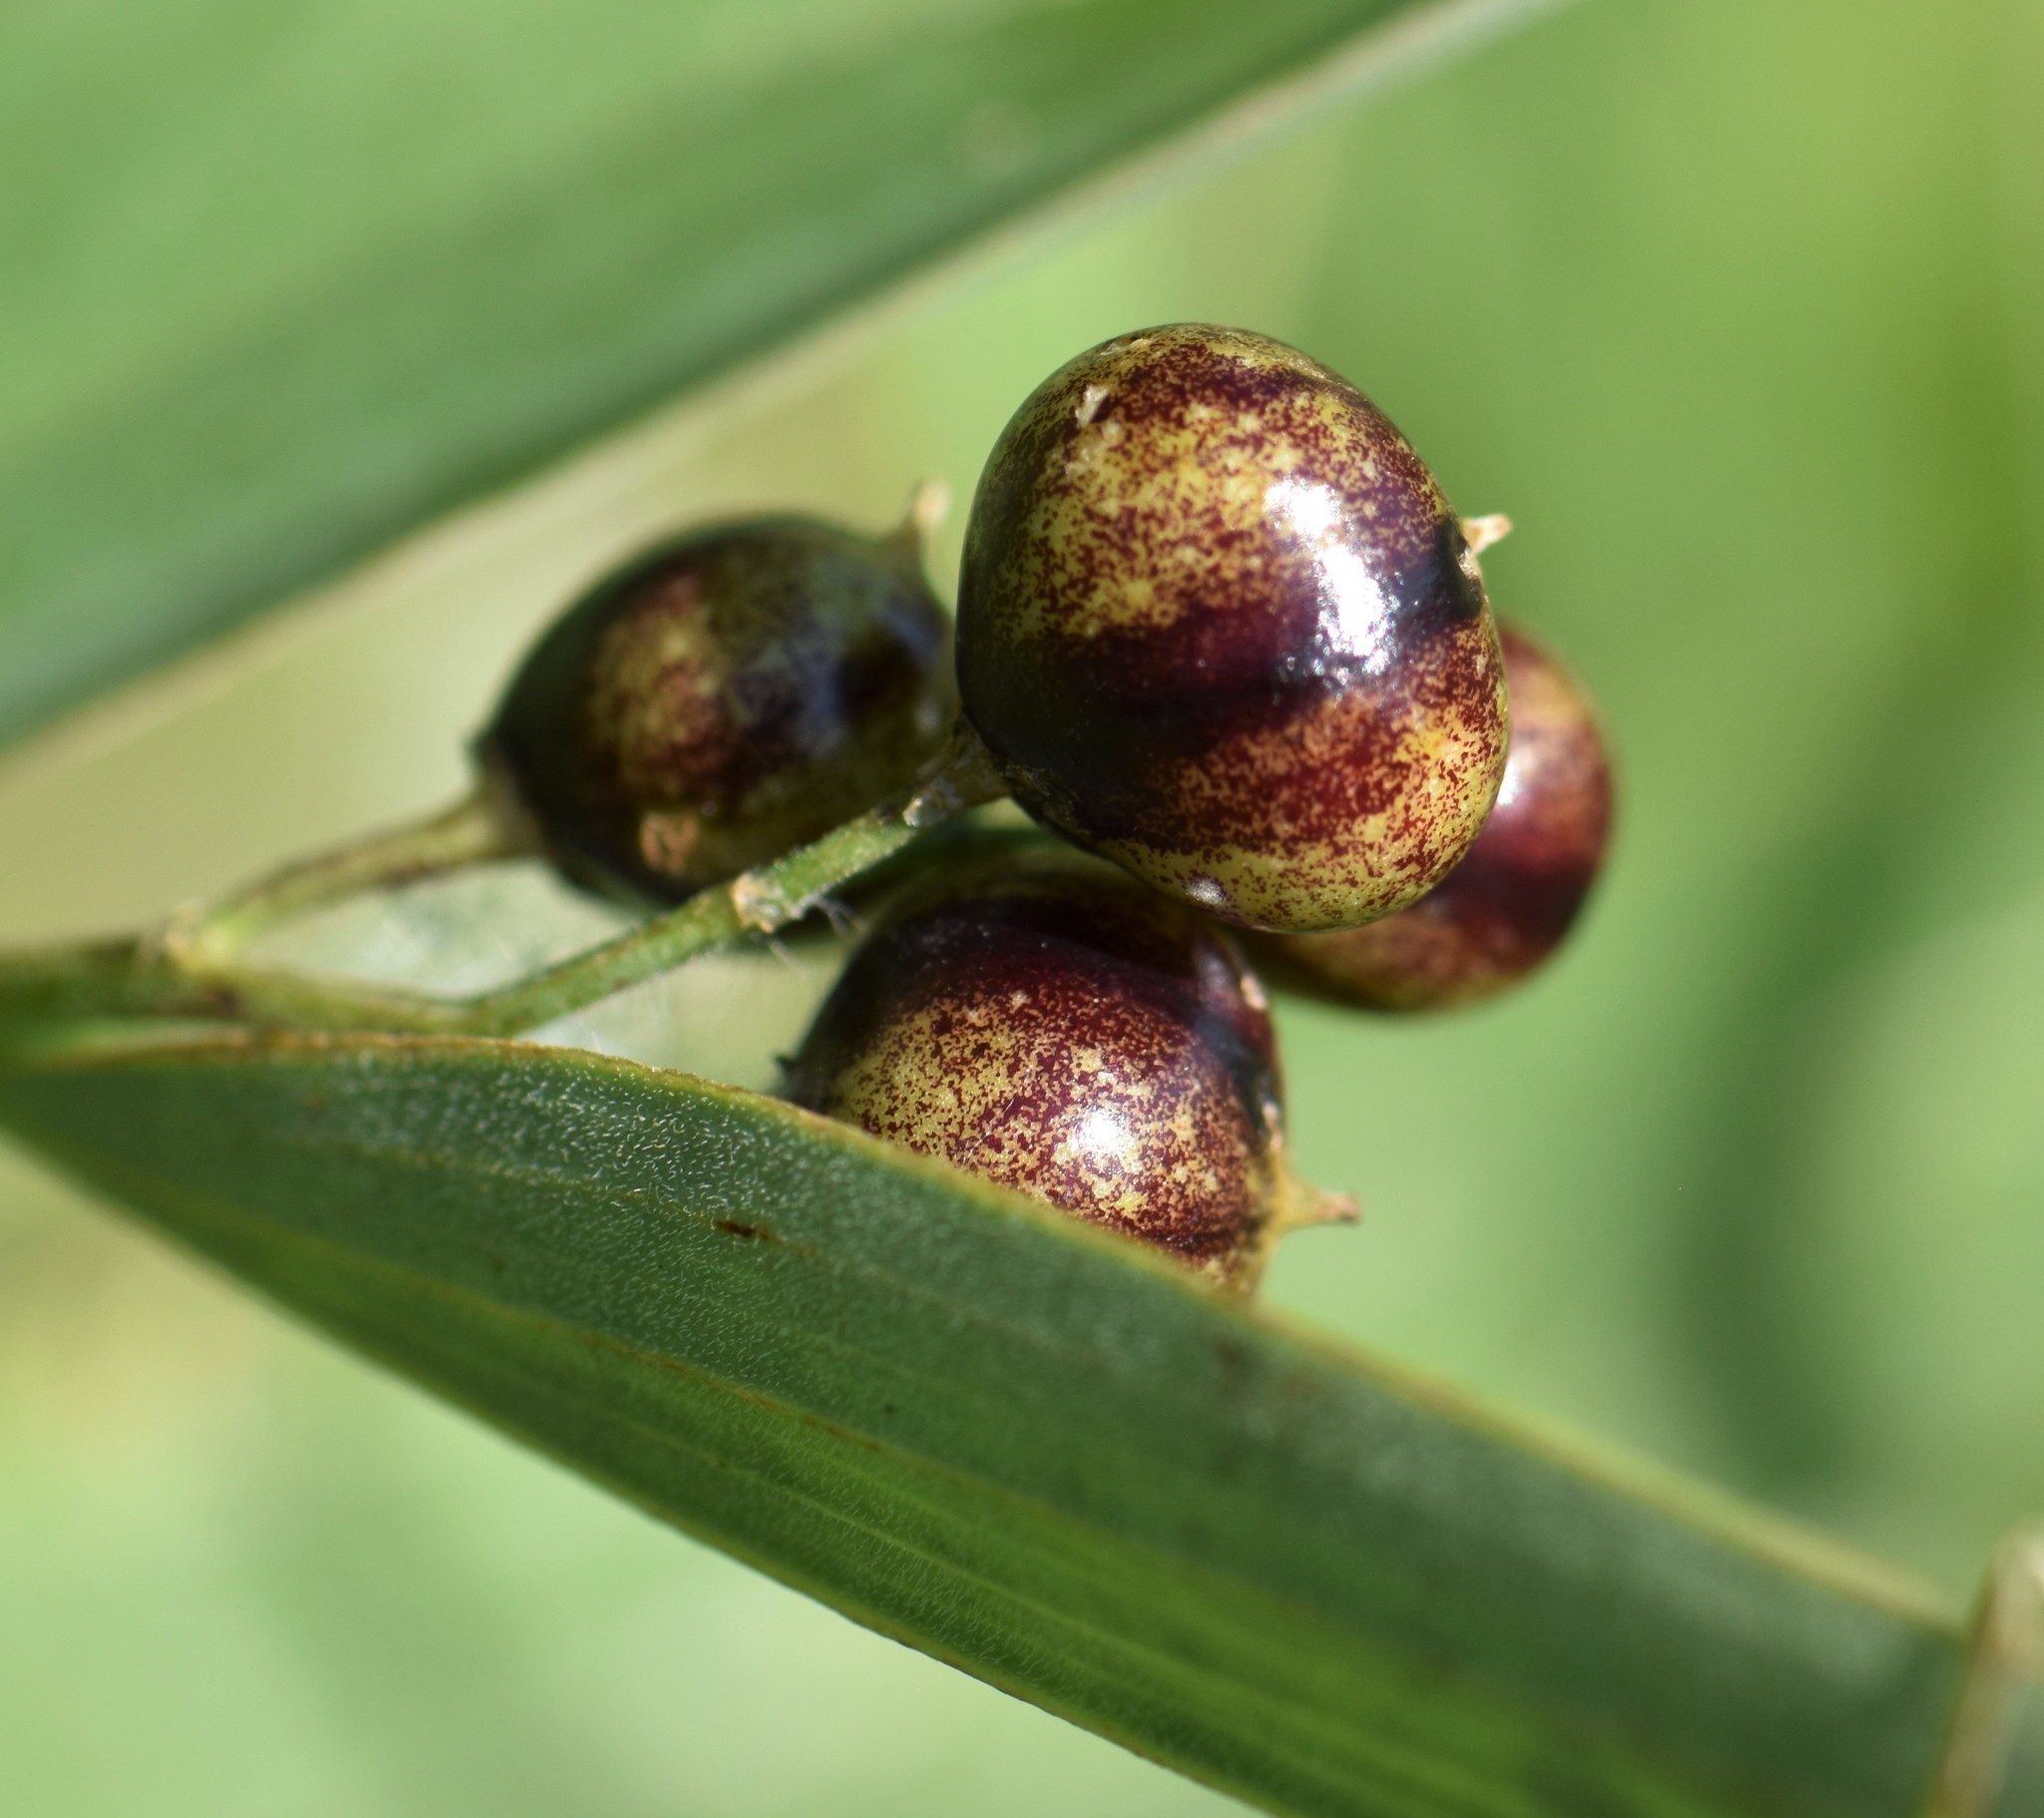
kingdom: Plantae
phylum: Tracheophyta
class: Liliopsida
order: Asparagales
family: Asparagaceae
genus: Maianthemum
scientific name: Maianthemum stellatum
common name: Little false solomon's seal
